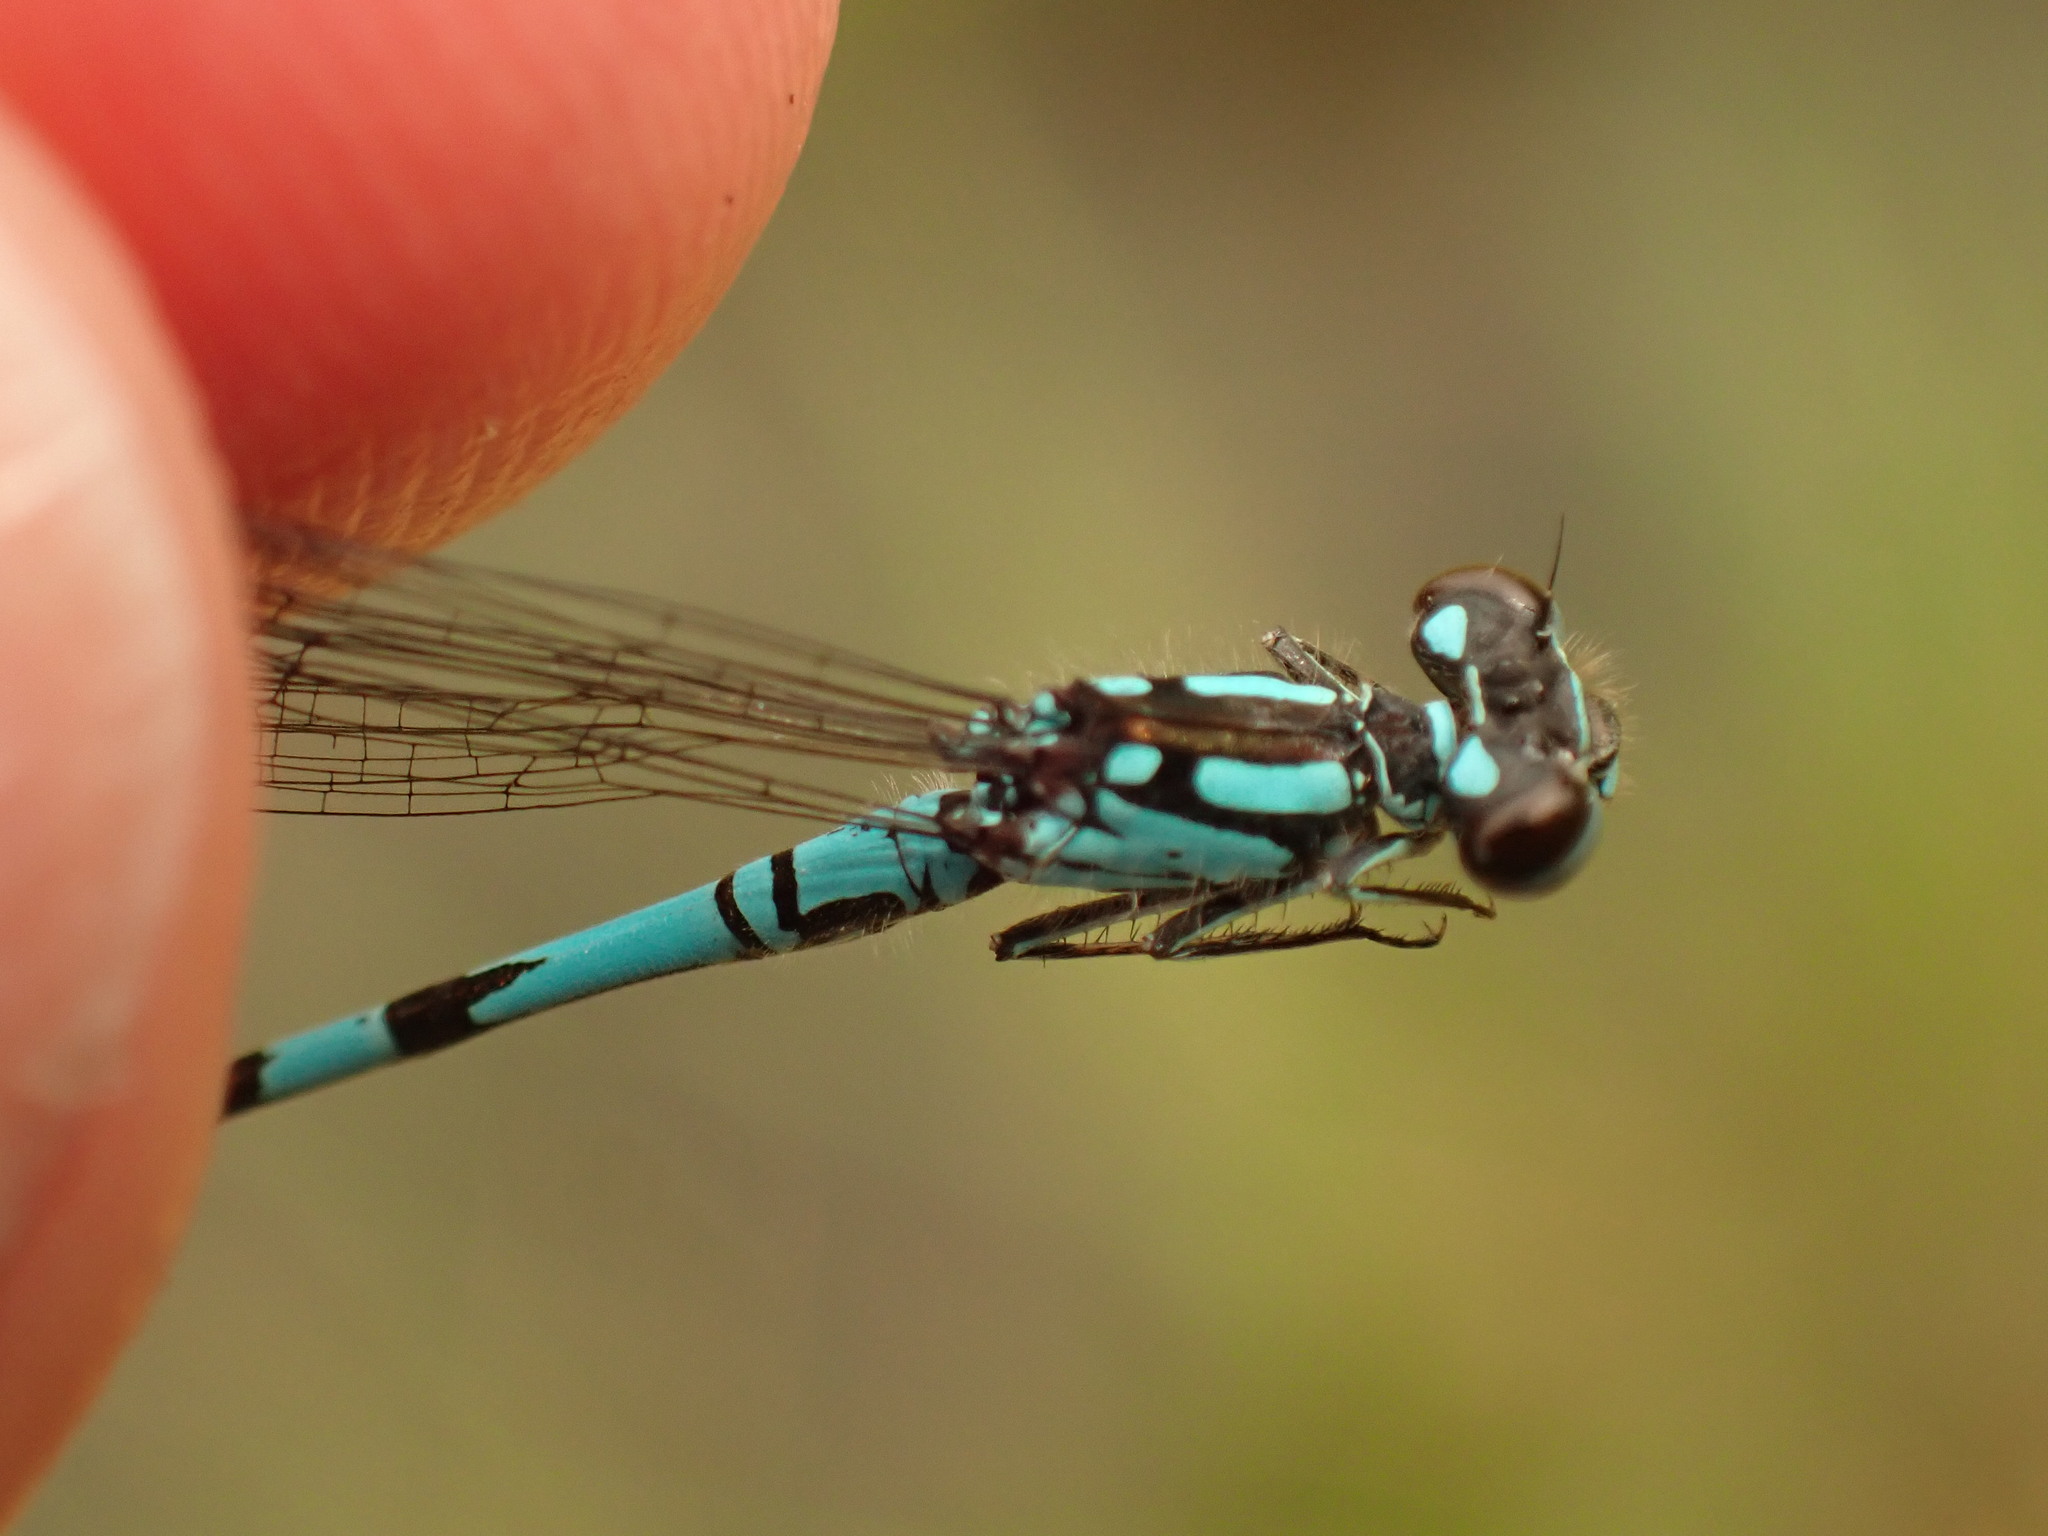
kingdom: Animalia
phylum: Arthropoda
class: Insecta
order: Odonata
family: Coenagrionidae
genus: Coenagrion
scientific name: Coenagrion interrogatum
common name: Subarctic bluet
